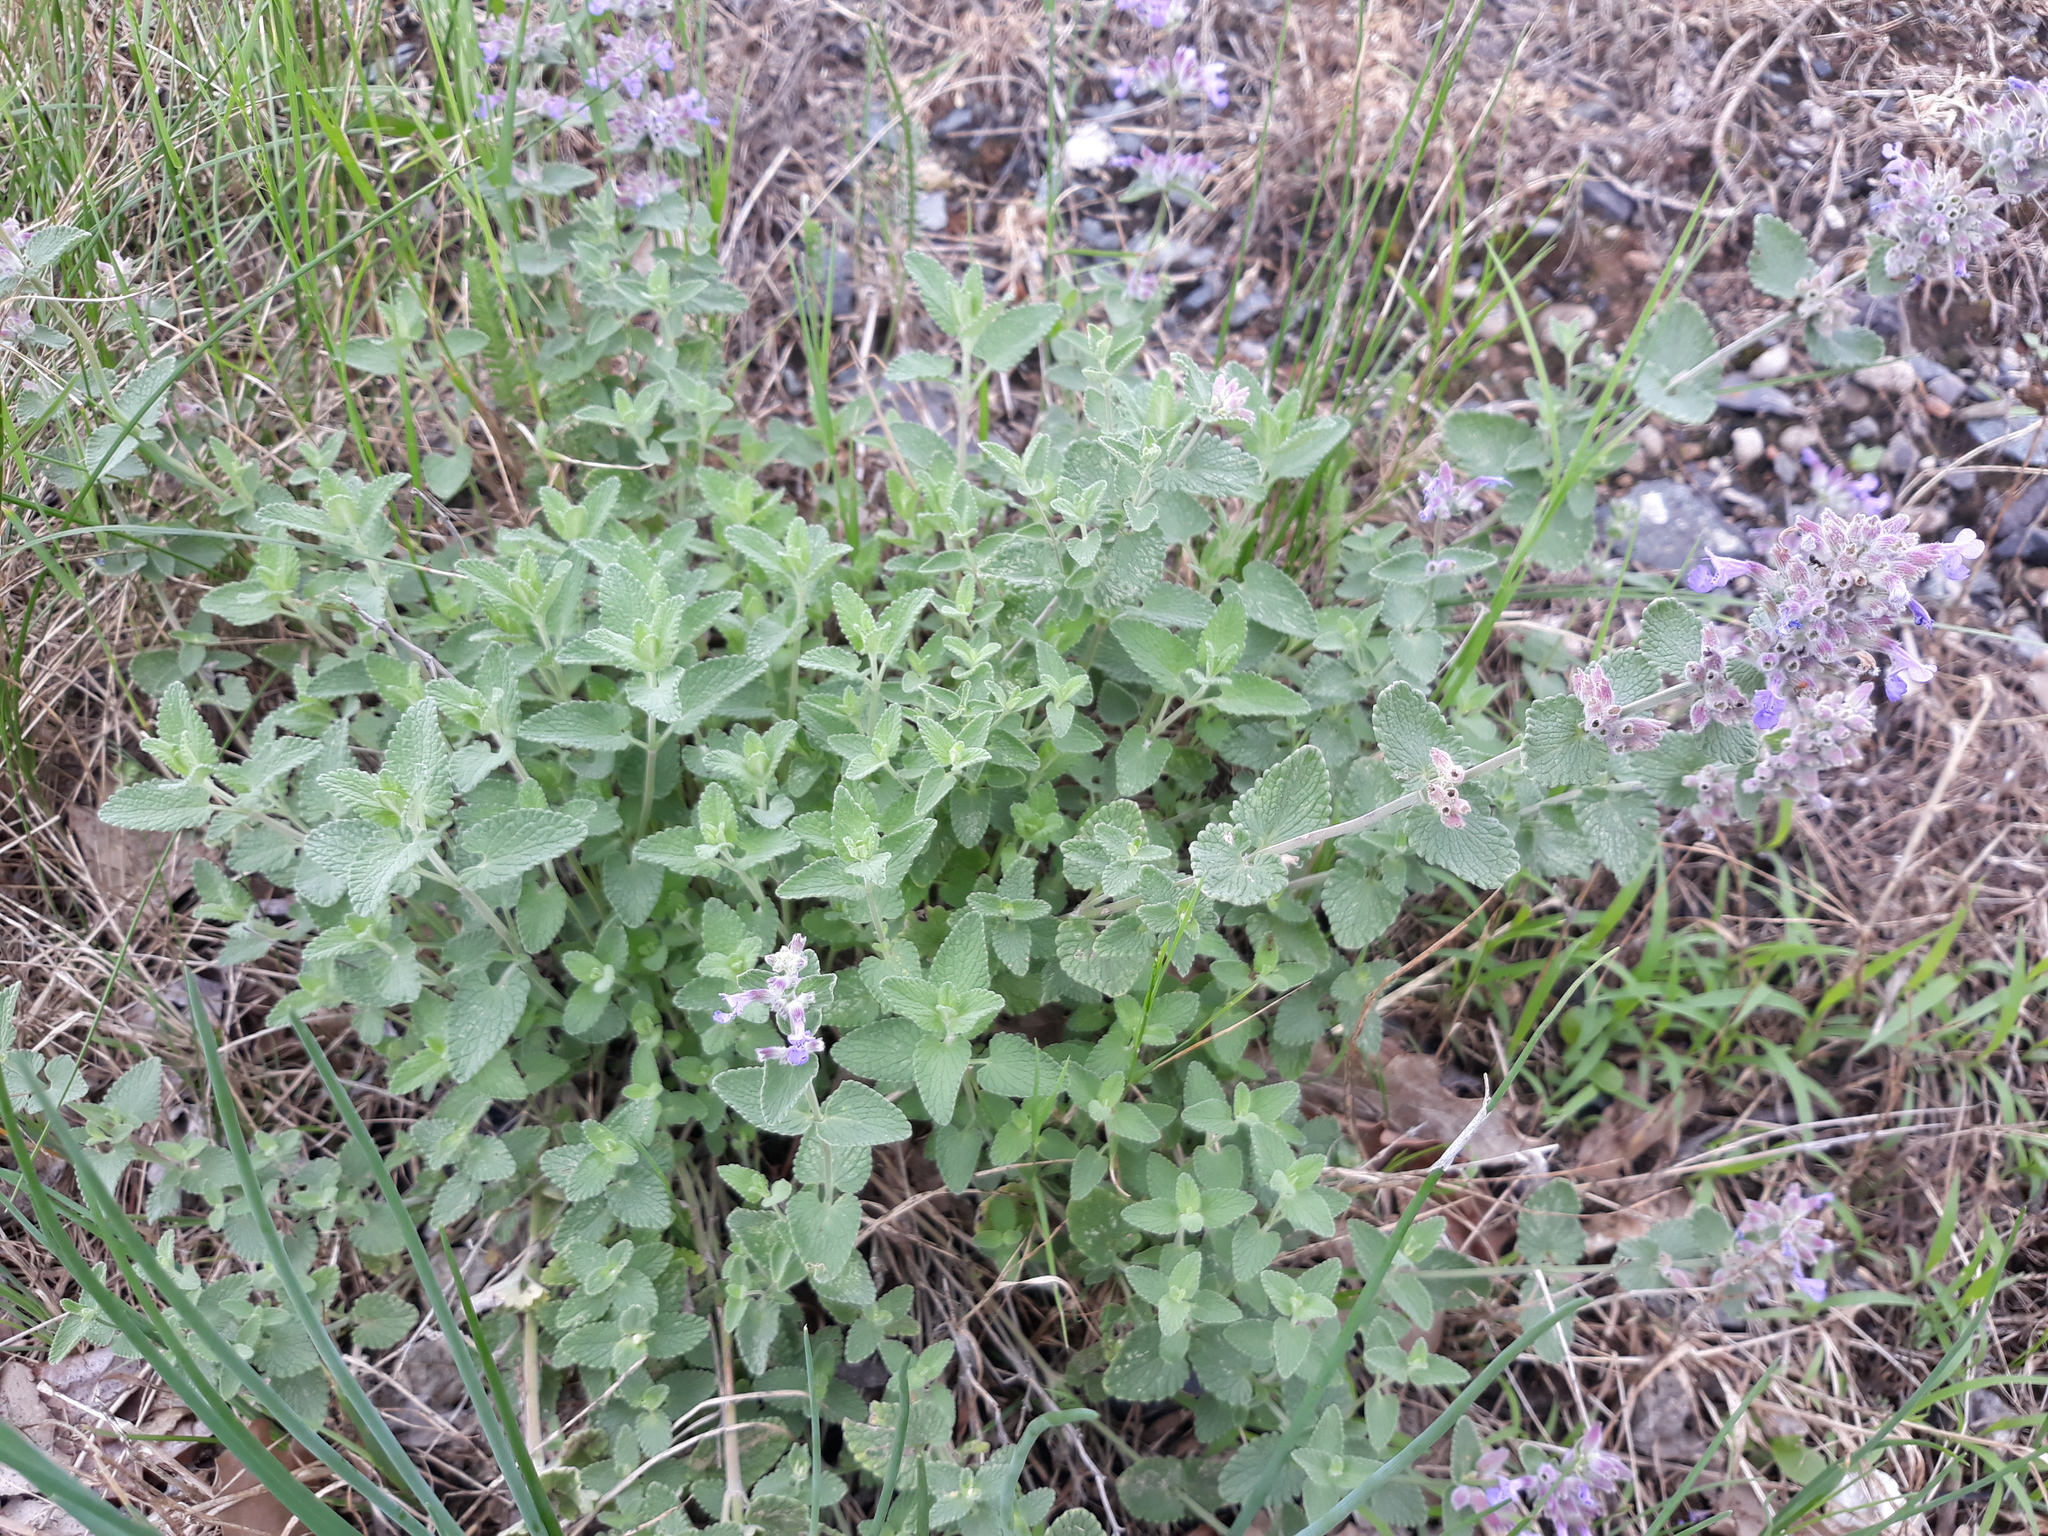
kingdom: Plantae
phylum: Tracheophyta
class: Magnoliopsida
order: Lamiales
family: Lamiaceae
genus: Nepeta
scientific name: Nepeta racemosa
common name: Raceme catnip
